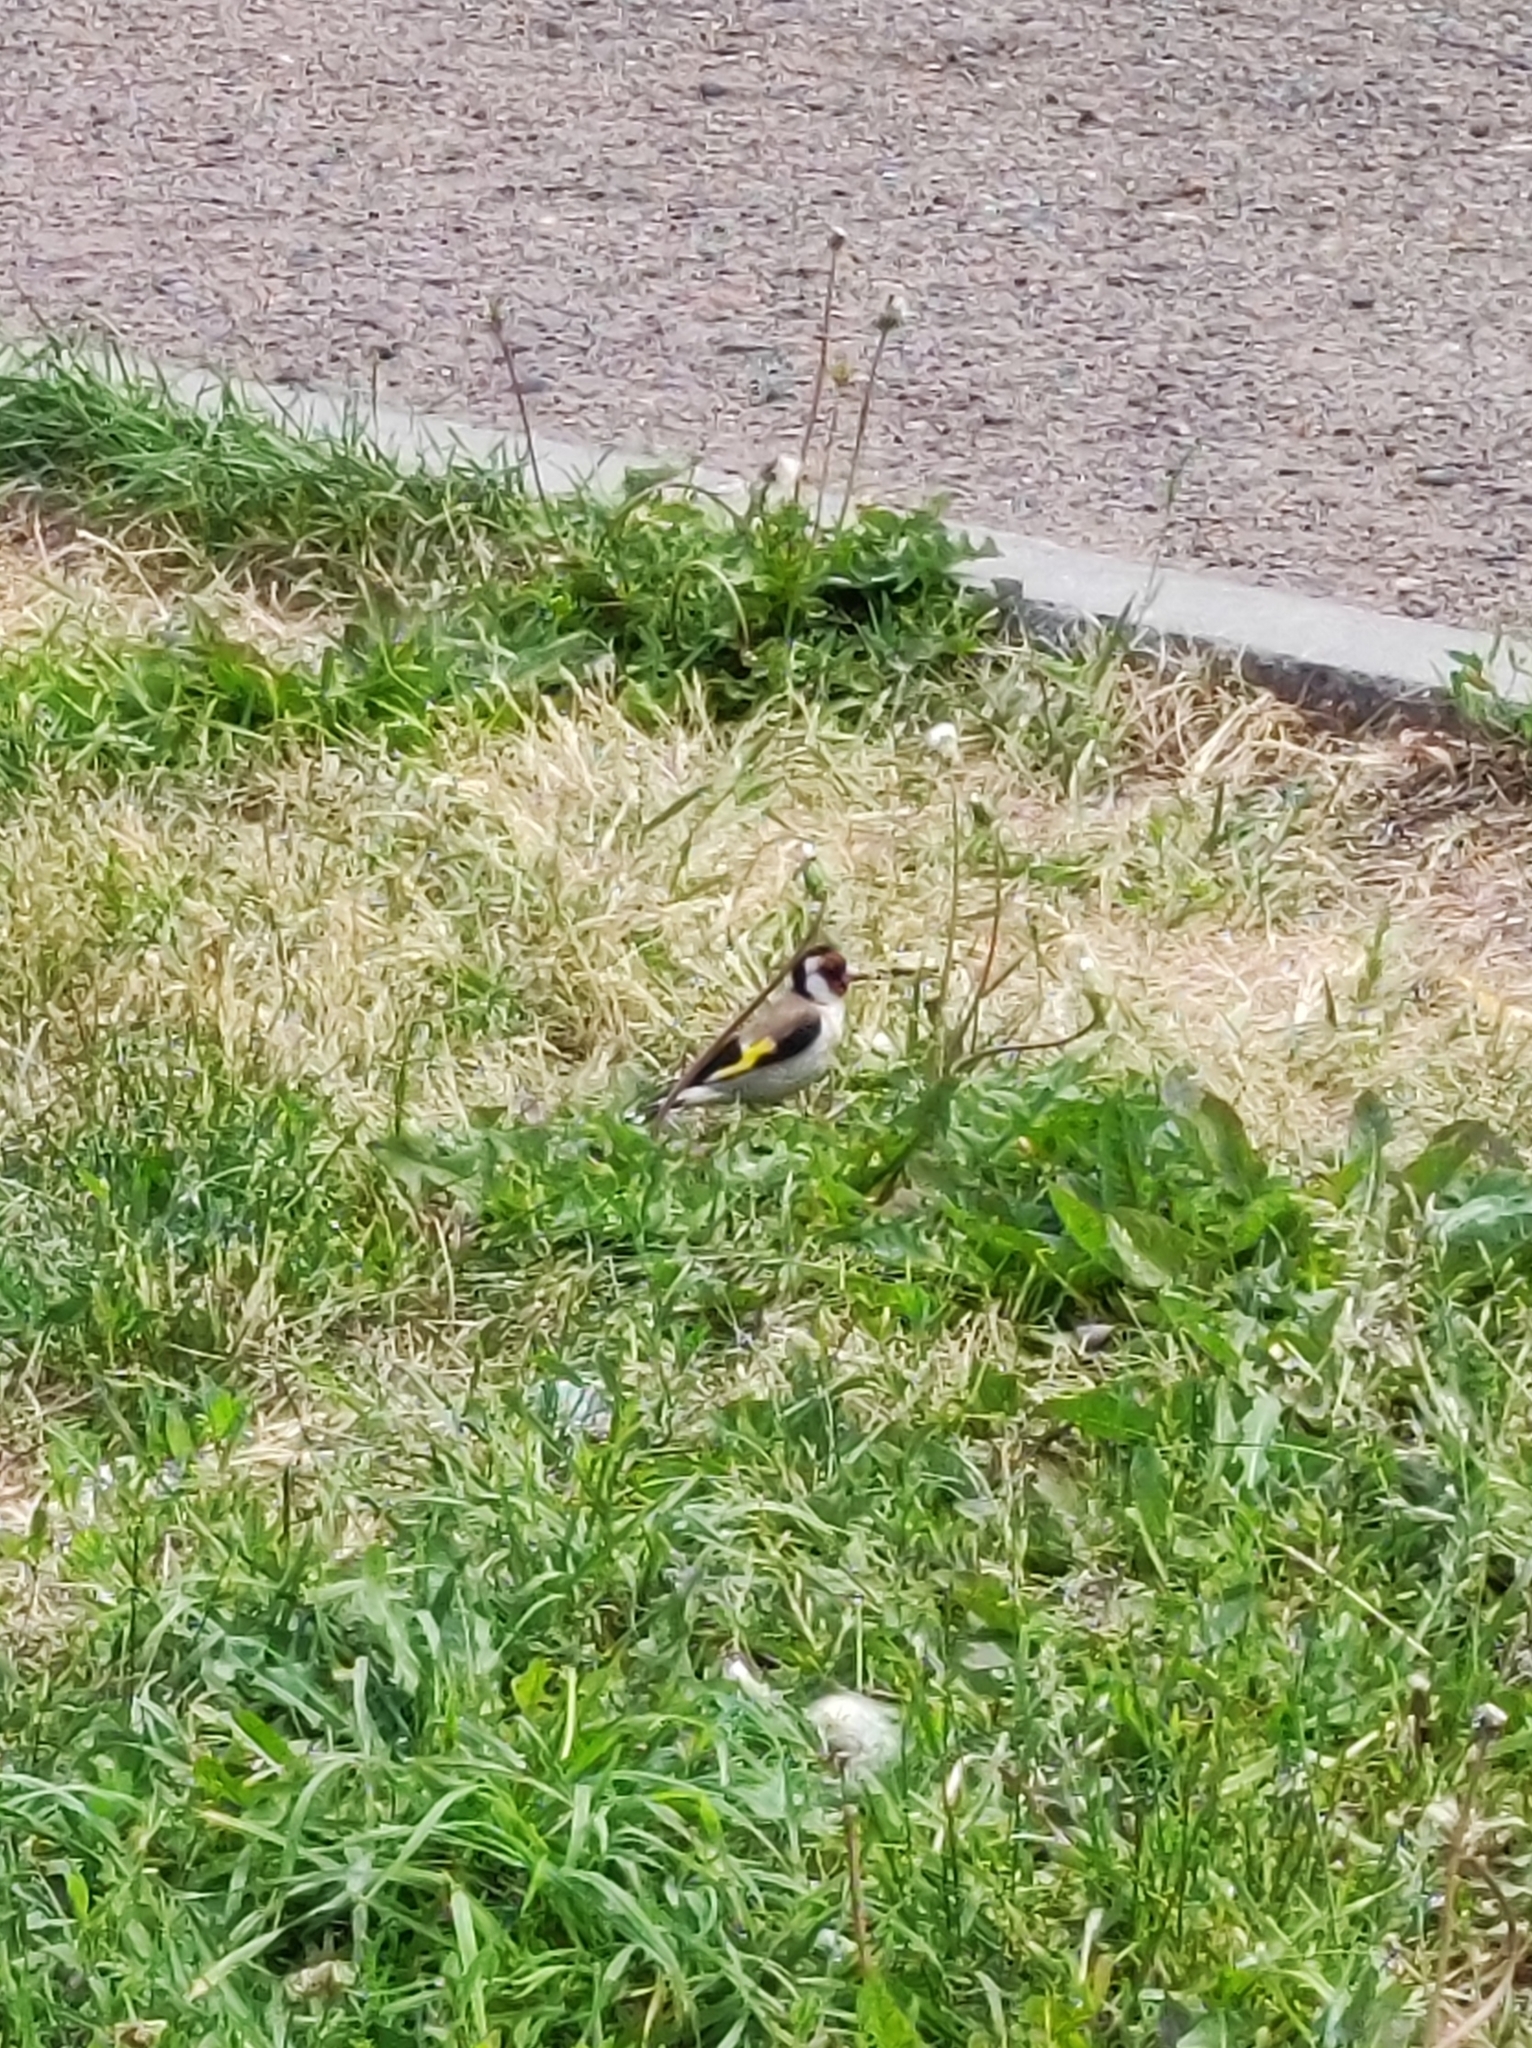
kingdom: Animalia
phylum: Chordata
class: Aves
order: Passeriformes
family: Fringillidae
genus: Carduelis
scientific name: Carduelis carduelis
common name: European goldfinch
